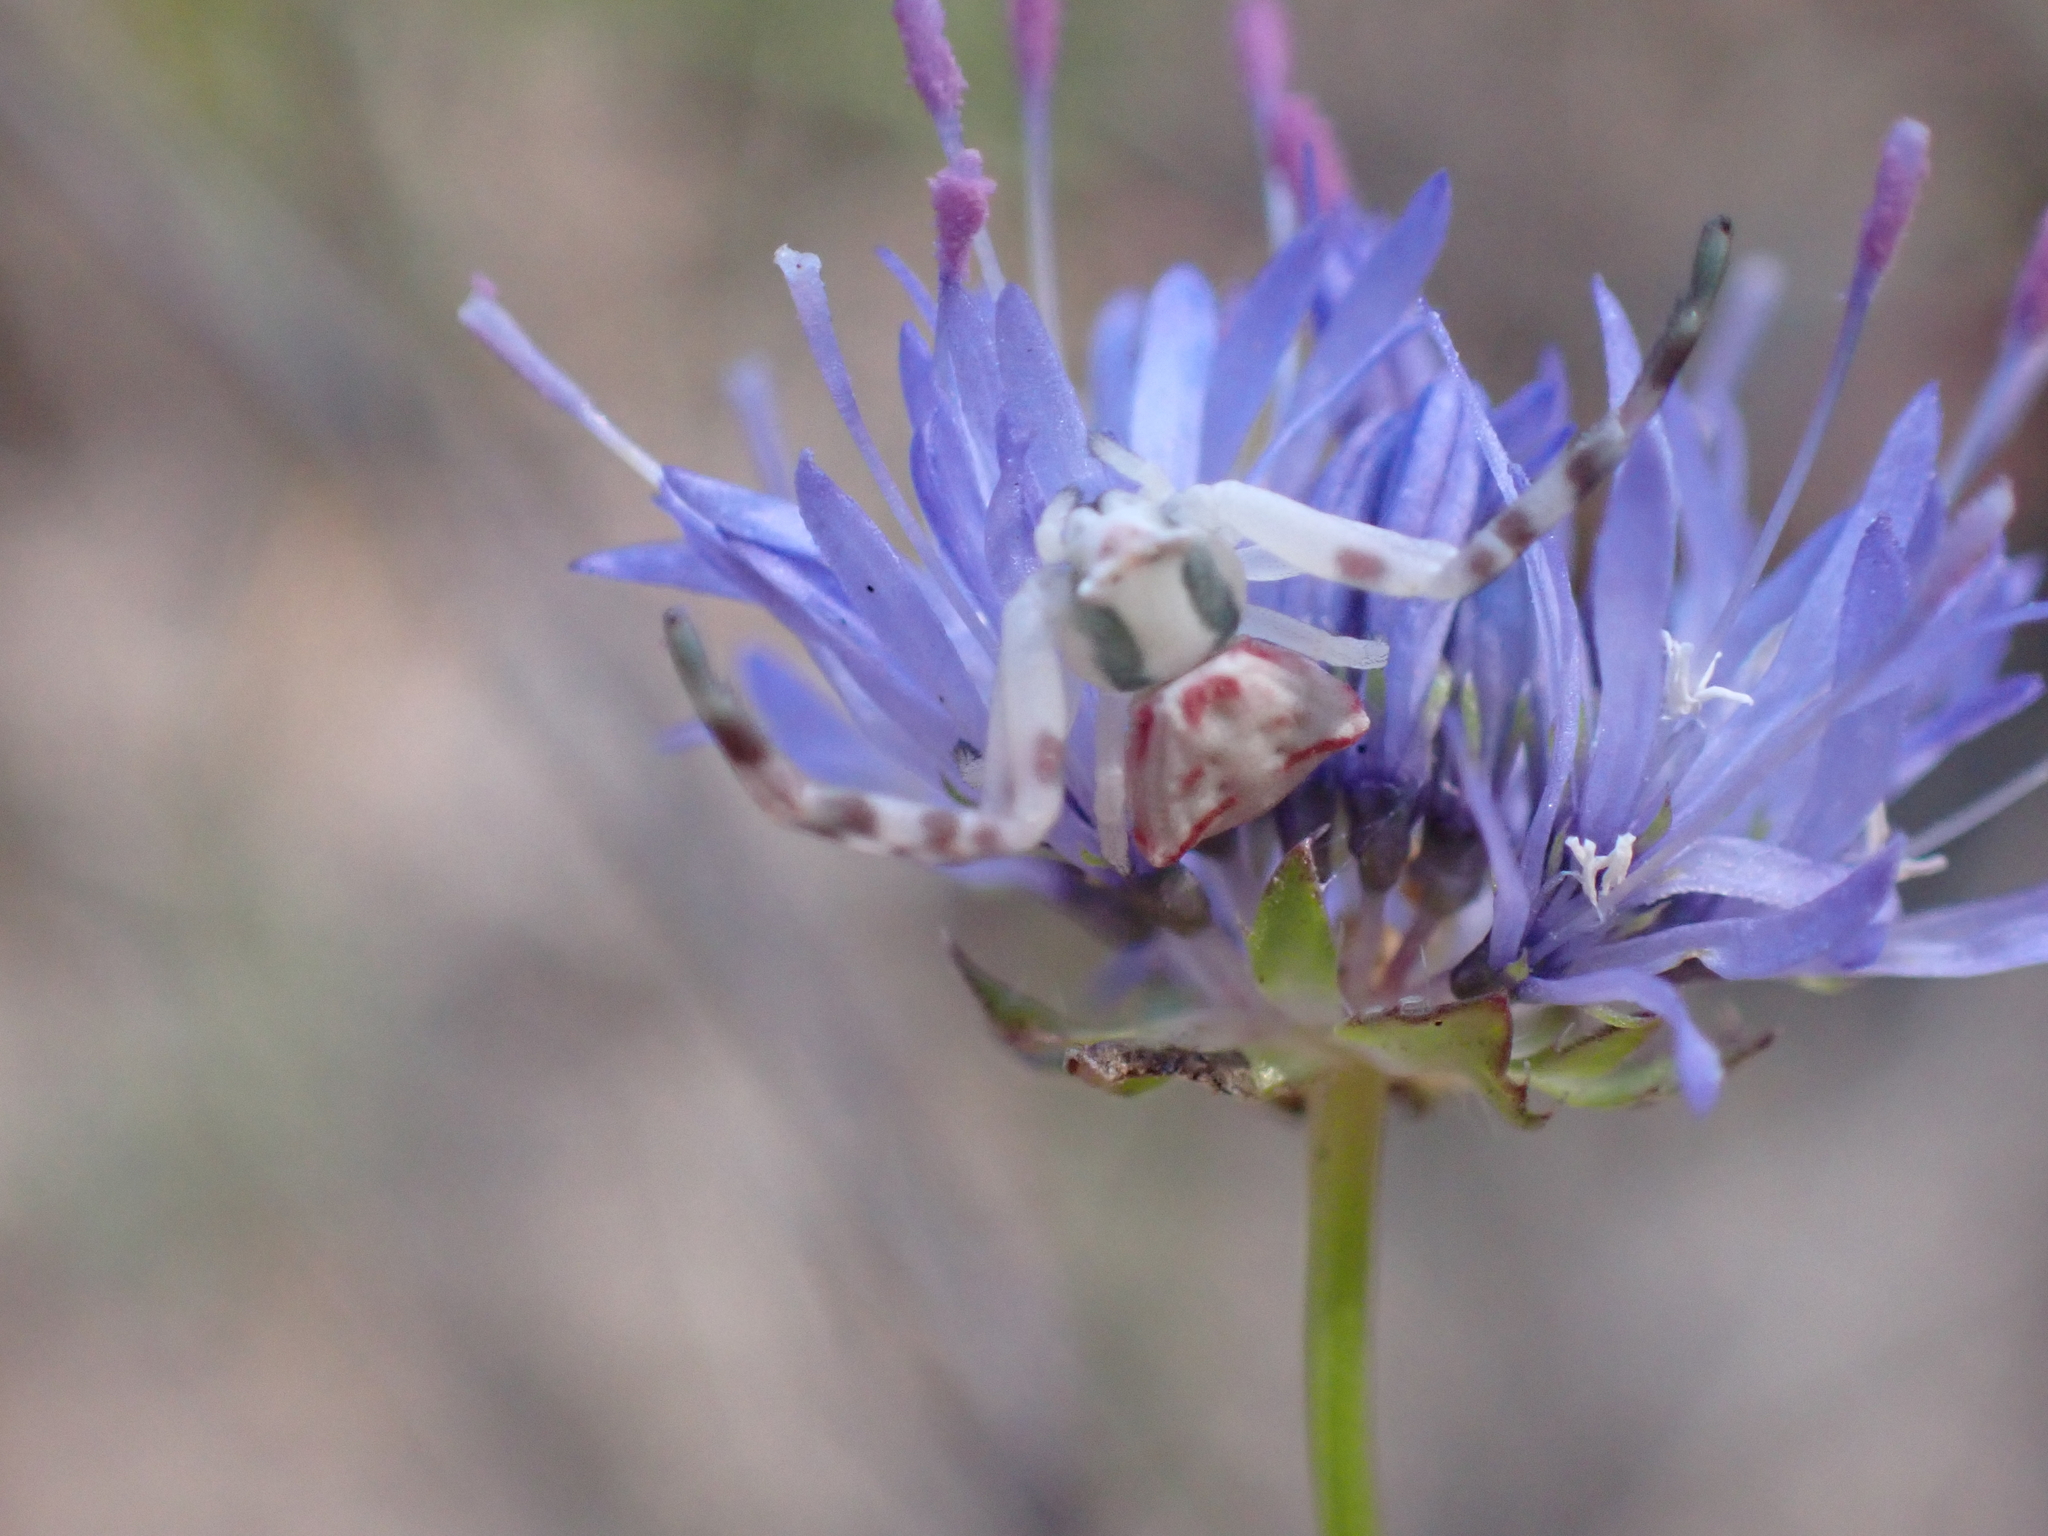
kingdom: Animalia
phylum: Arthropoda
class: Arachnida
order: Araneae
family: Thomisidae
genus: Thomisus
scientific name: Thomisus onustus
